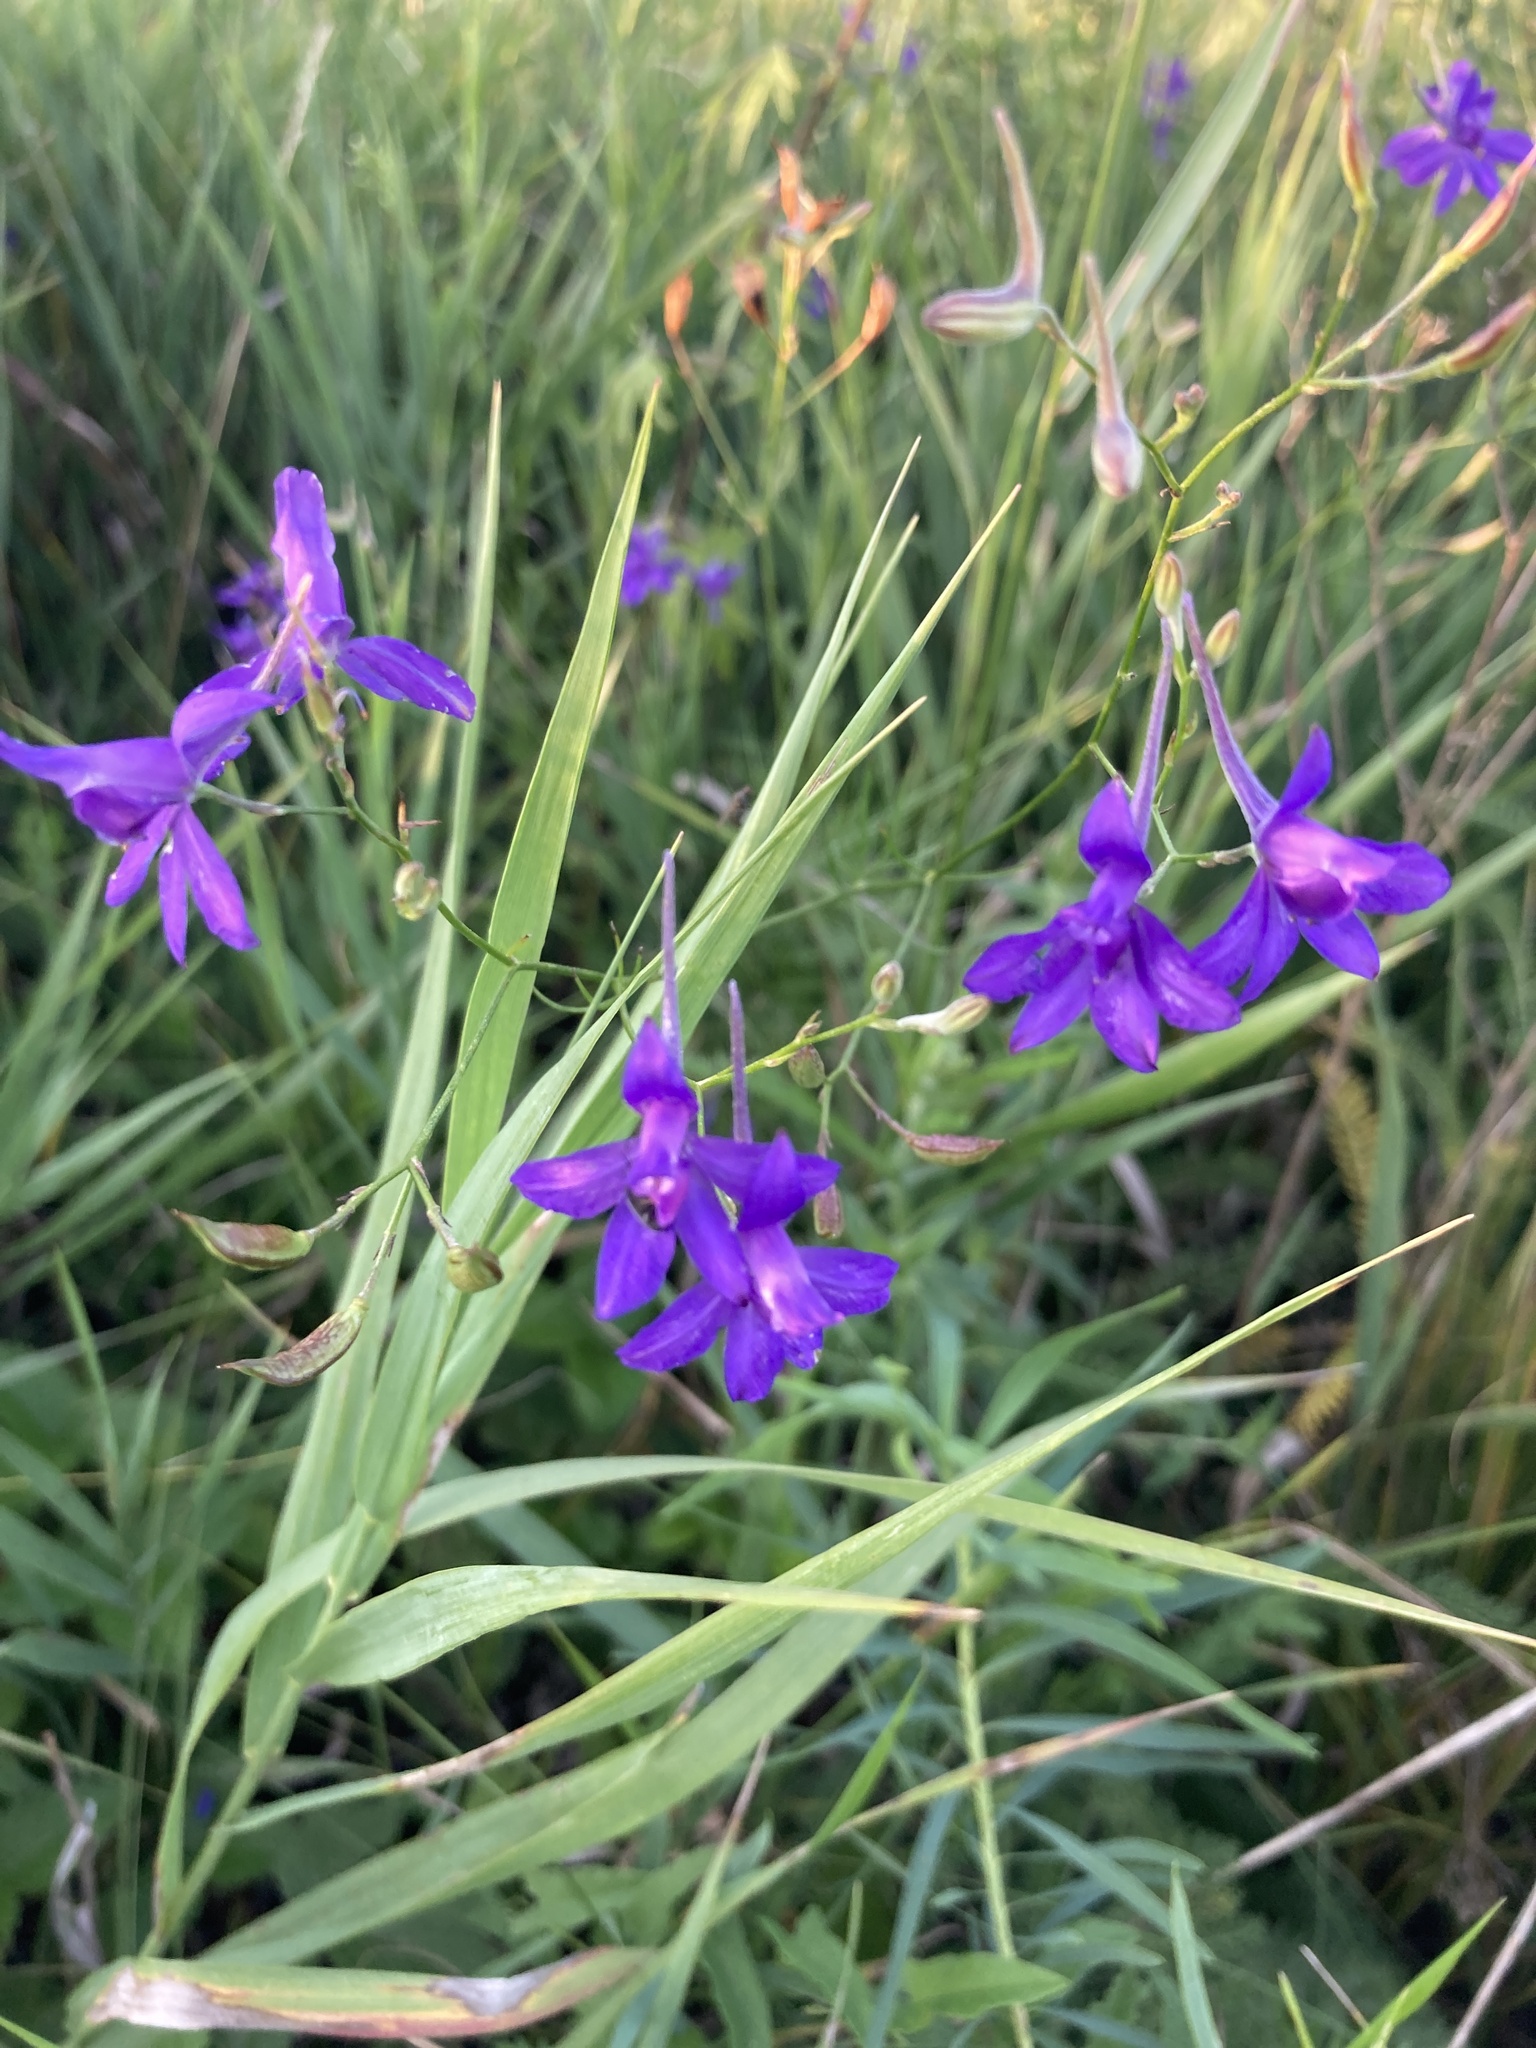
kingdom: Plantae
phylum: Tracheophyta
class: Magnoliopsida
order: Ranunculales
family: Ranunculaceae
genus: Delphinium
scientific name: Delphinium consolida
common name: Branching larkspur
